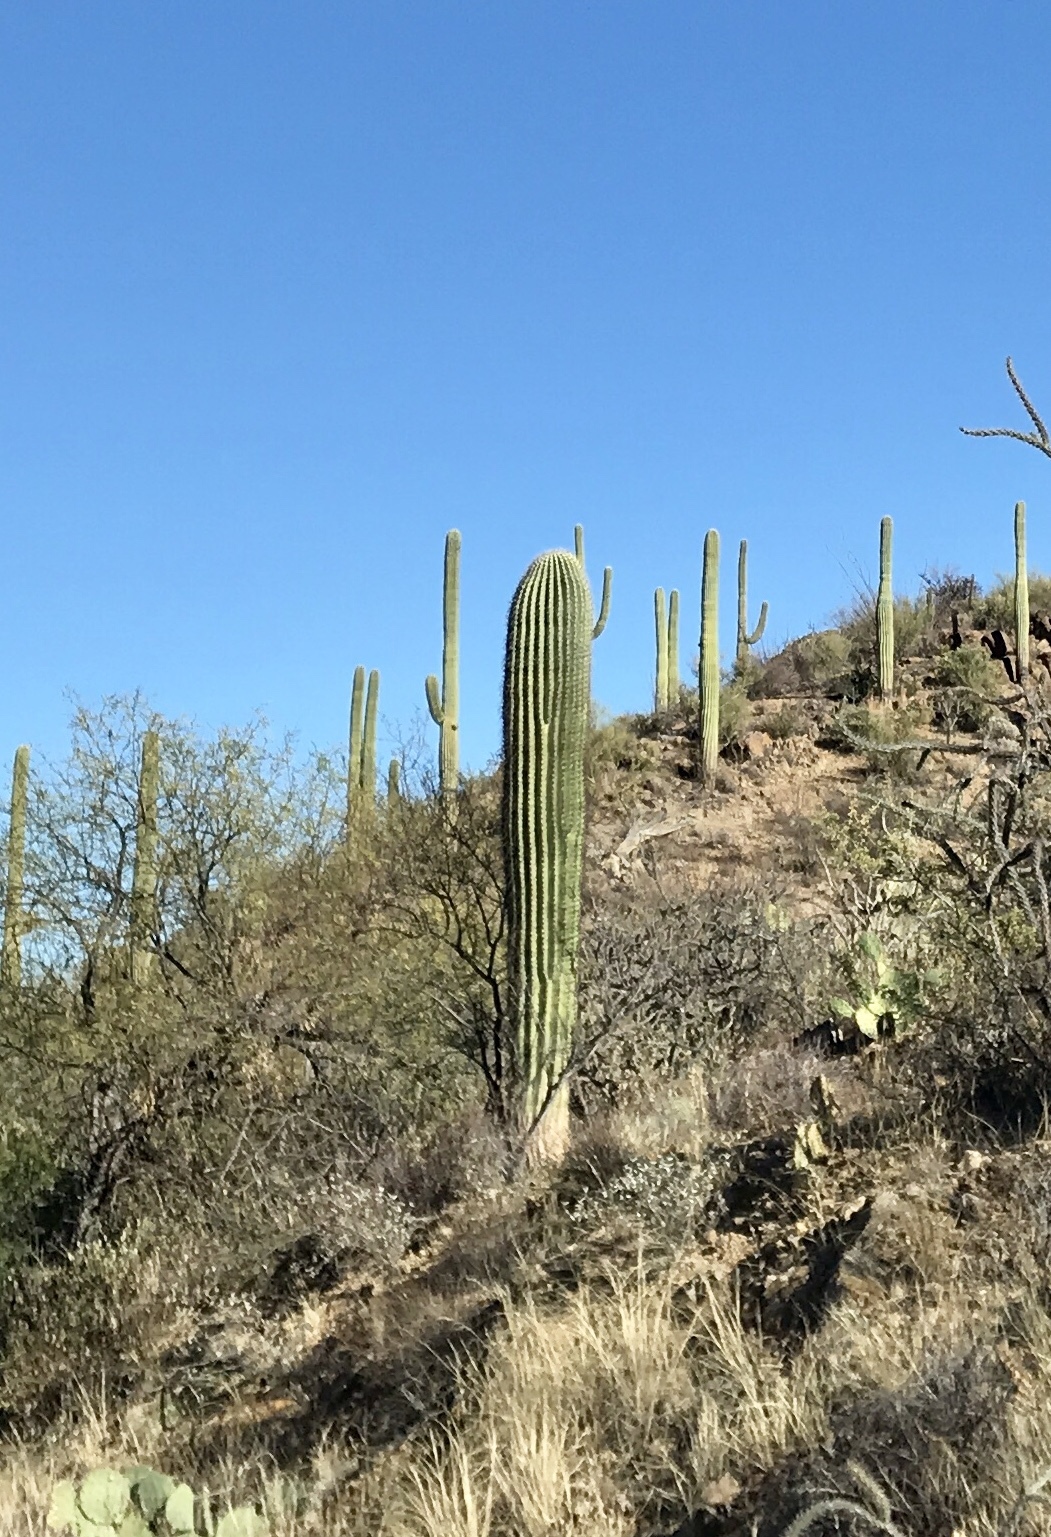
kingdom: Plantae
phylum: Tracheophyta
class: Magnoliopsida
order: Caryophyllales
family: Cactaceae
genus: Carnegiea
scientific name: Carnegiea gigantea
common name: Saguaro
